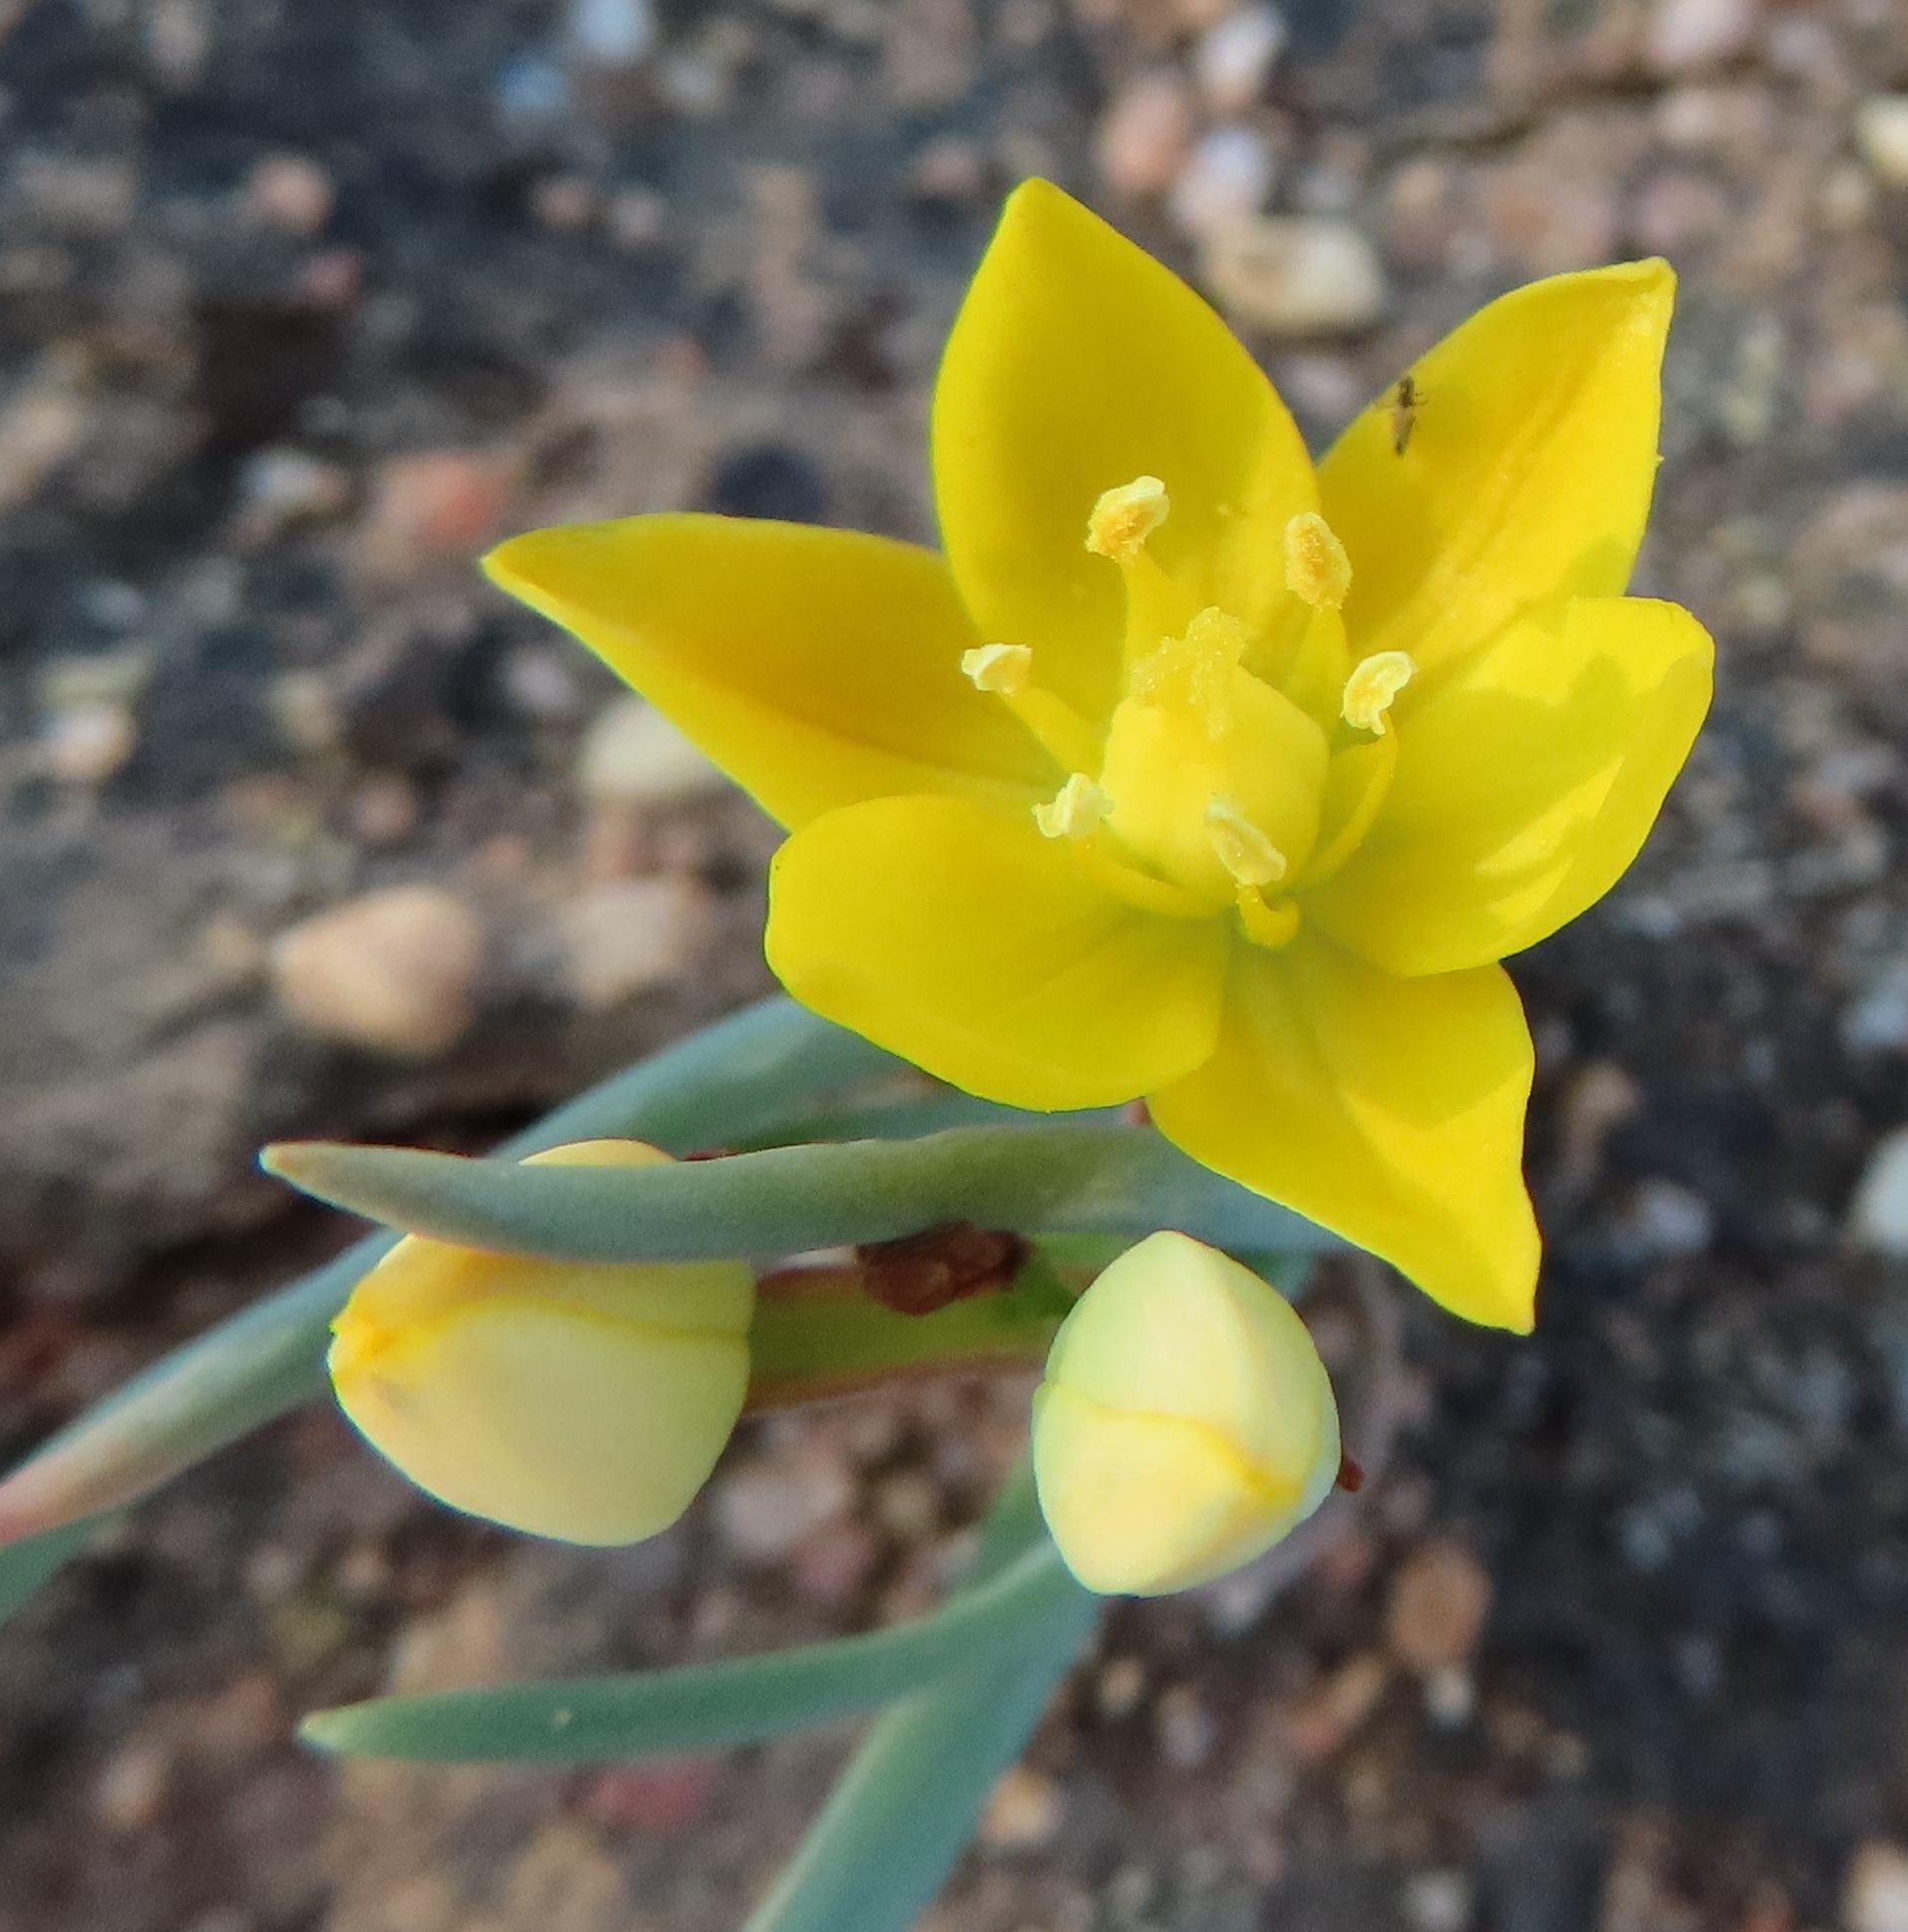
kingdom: Plantae
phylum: Tracheophyta
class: Liliopsida
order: Asparagales
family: Asparagaceae
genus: Ornithogalum
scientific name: Ornithogalum rupestre
